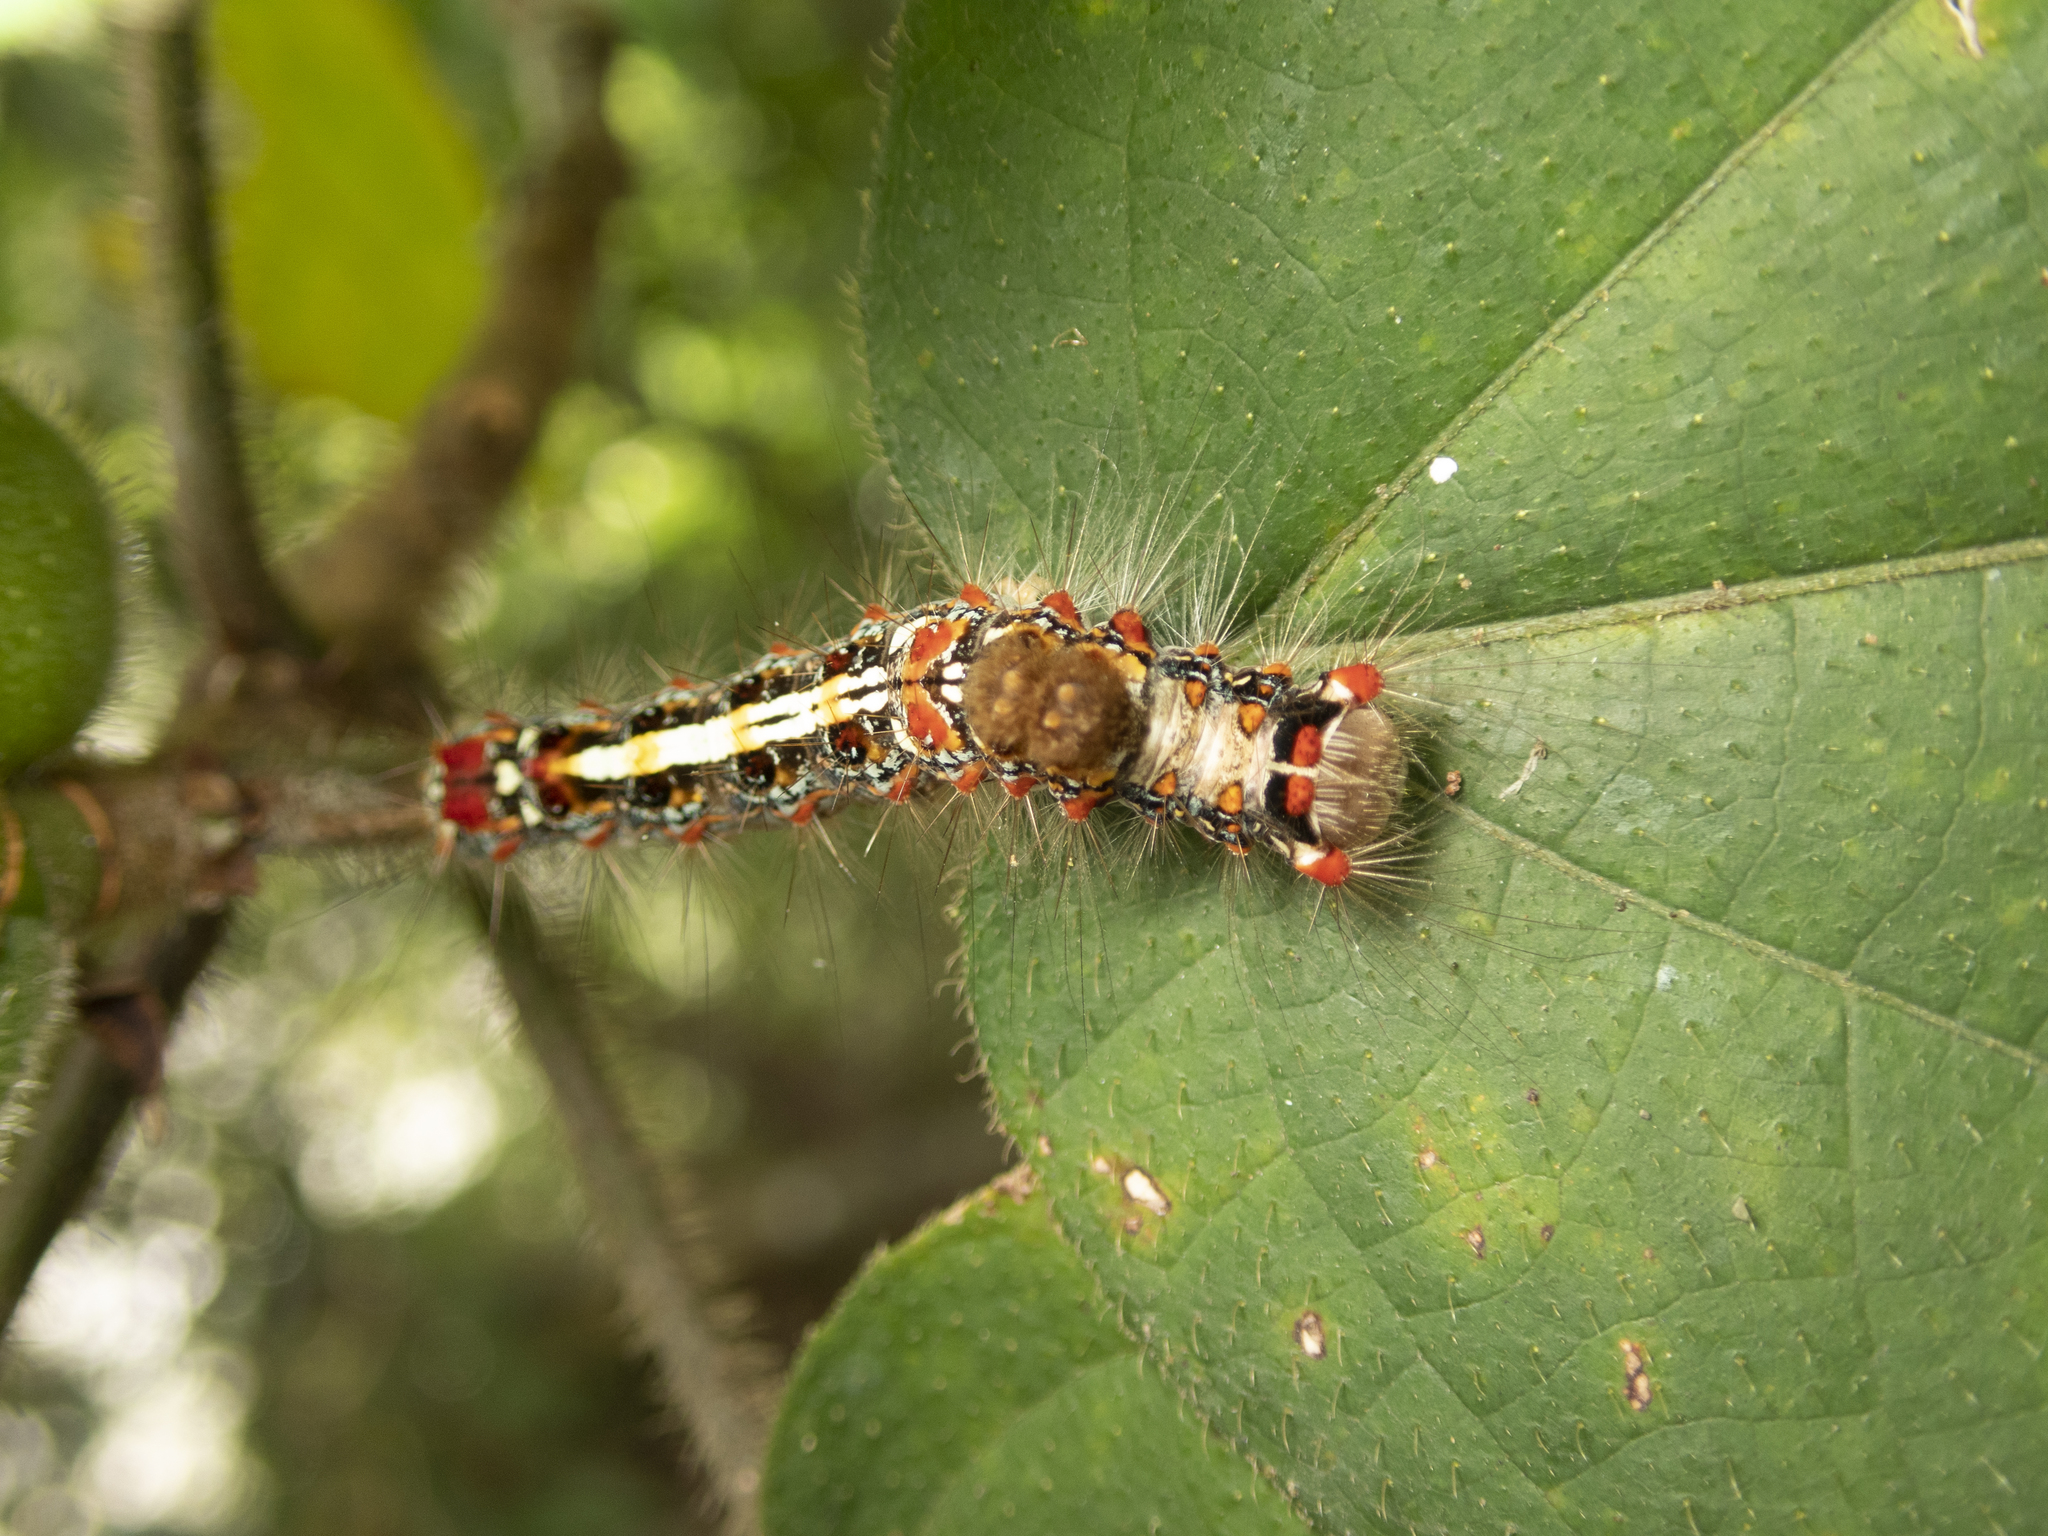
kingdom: Animalia
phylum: Arthropoda
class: Insecta
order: Lepidoptera
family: Erebidae
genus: Perina
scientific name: Perina nuda
